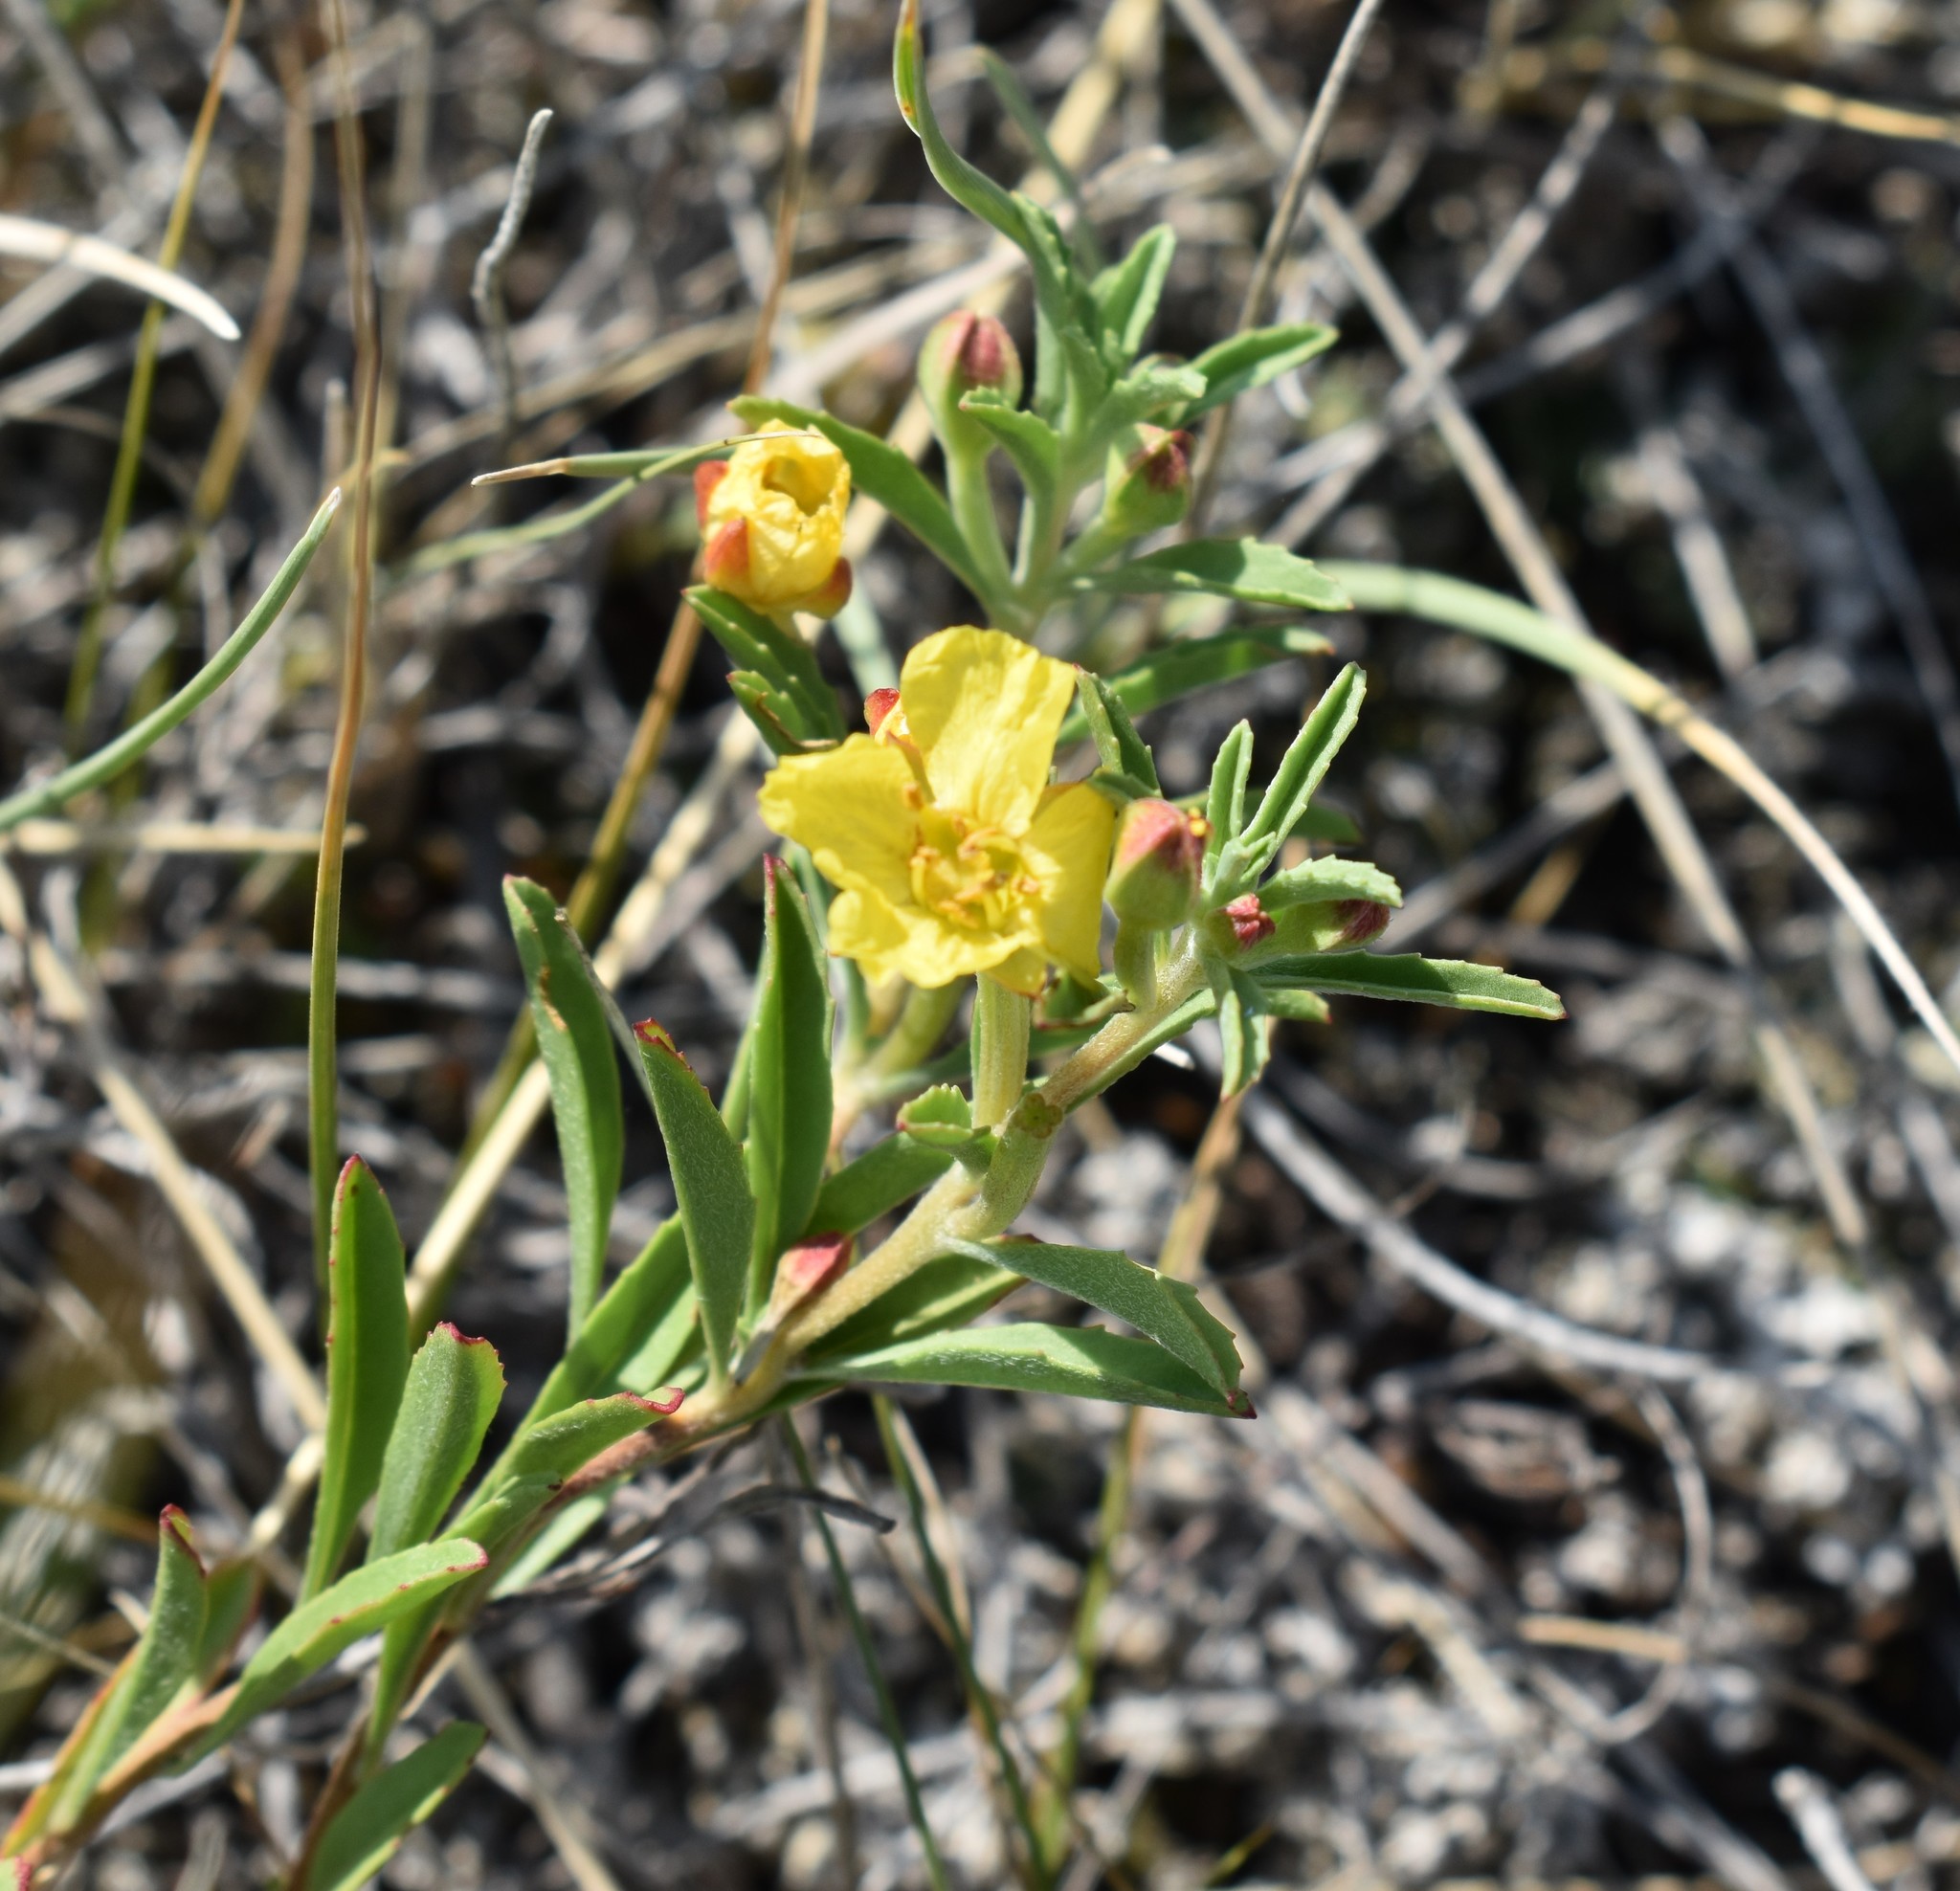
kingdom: Plantae
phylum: Tracheophyta
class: Magnoliopsida
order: Myrtales
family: Onagraceae
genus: Oenothera
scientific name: Oenothera serrulata
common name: Half-shrub calylophus
